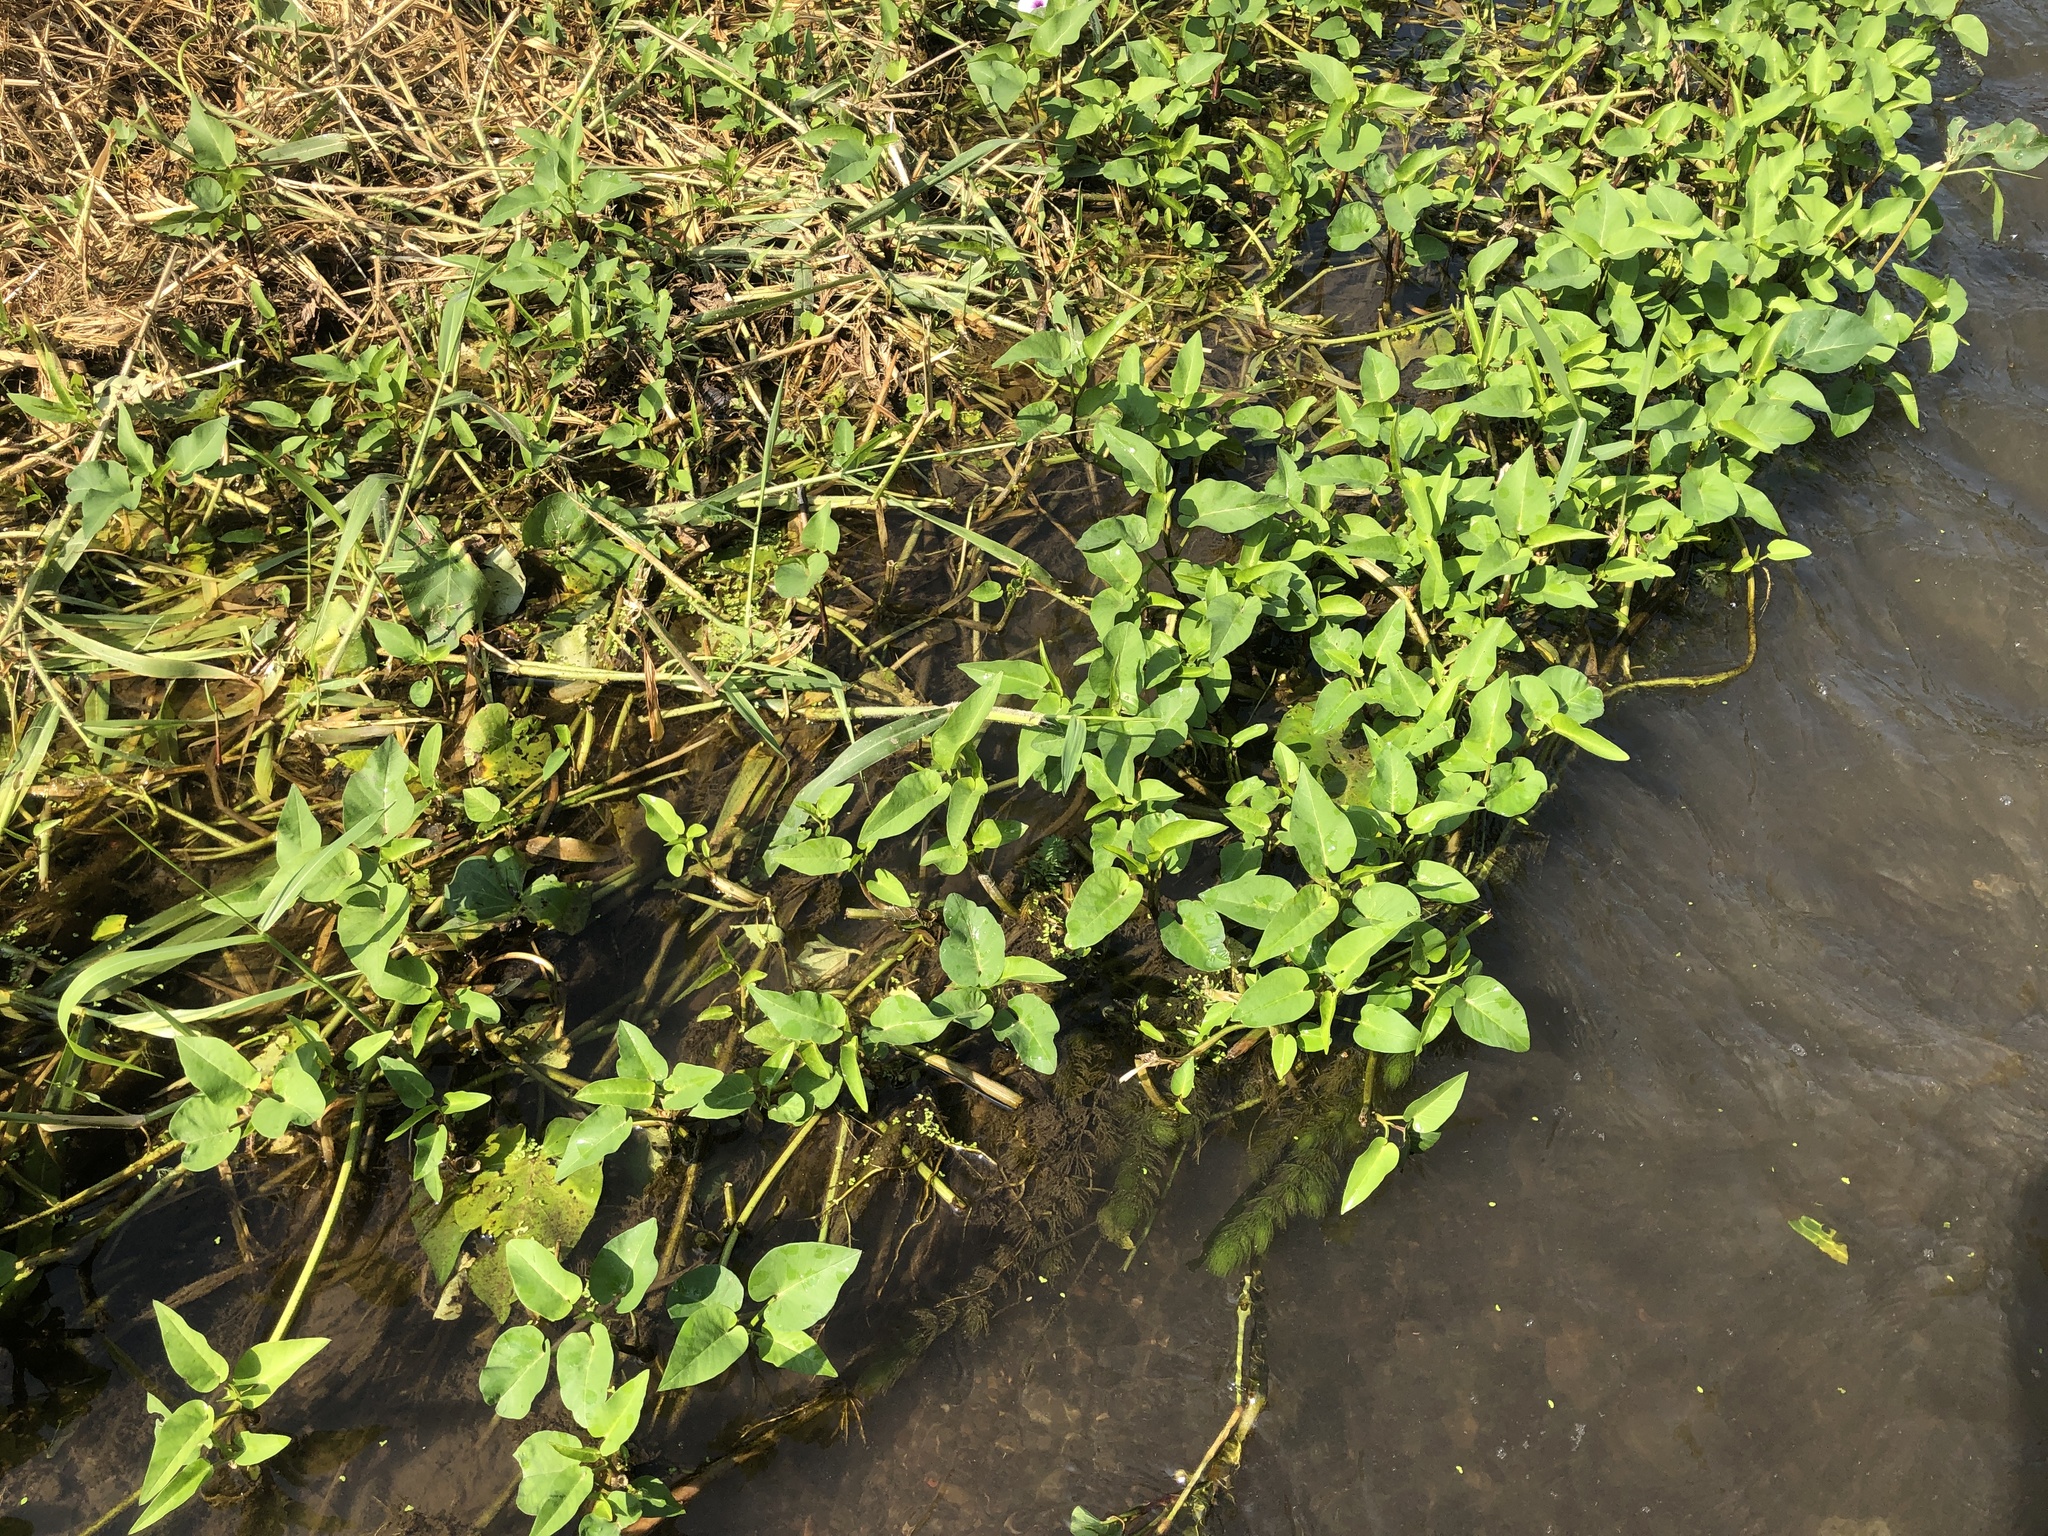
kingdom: Plantae
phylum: Tracheophyta
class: Magnoliopsida
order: Solanales
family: Convolvulaceae
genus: Ipomoea
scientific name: Ipomoea aquatica
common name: Swamp morning-glory
